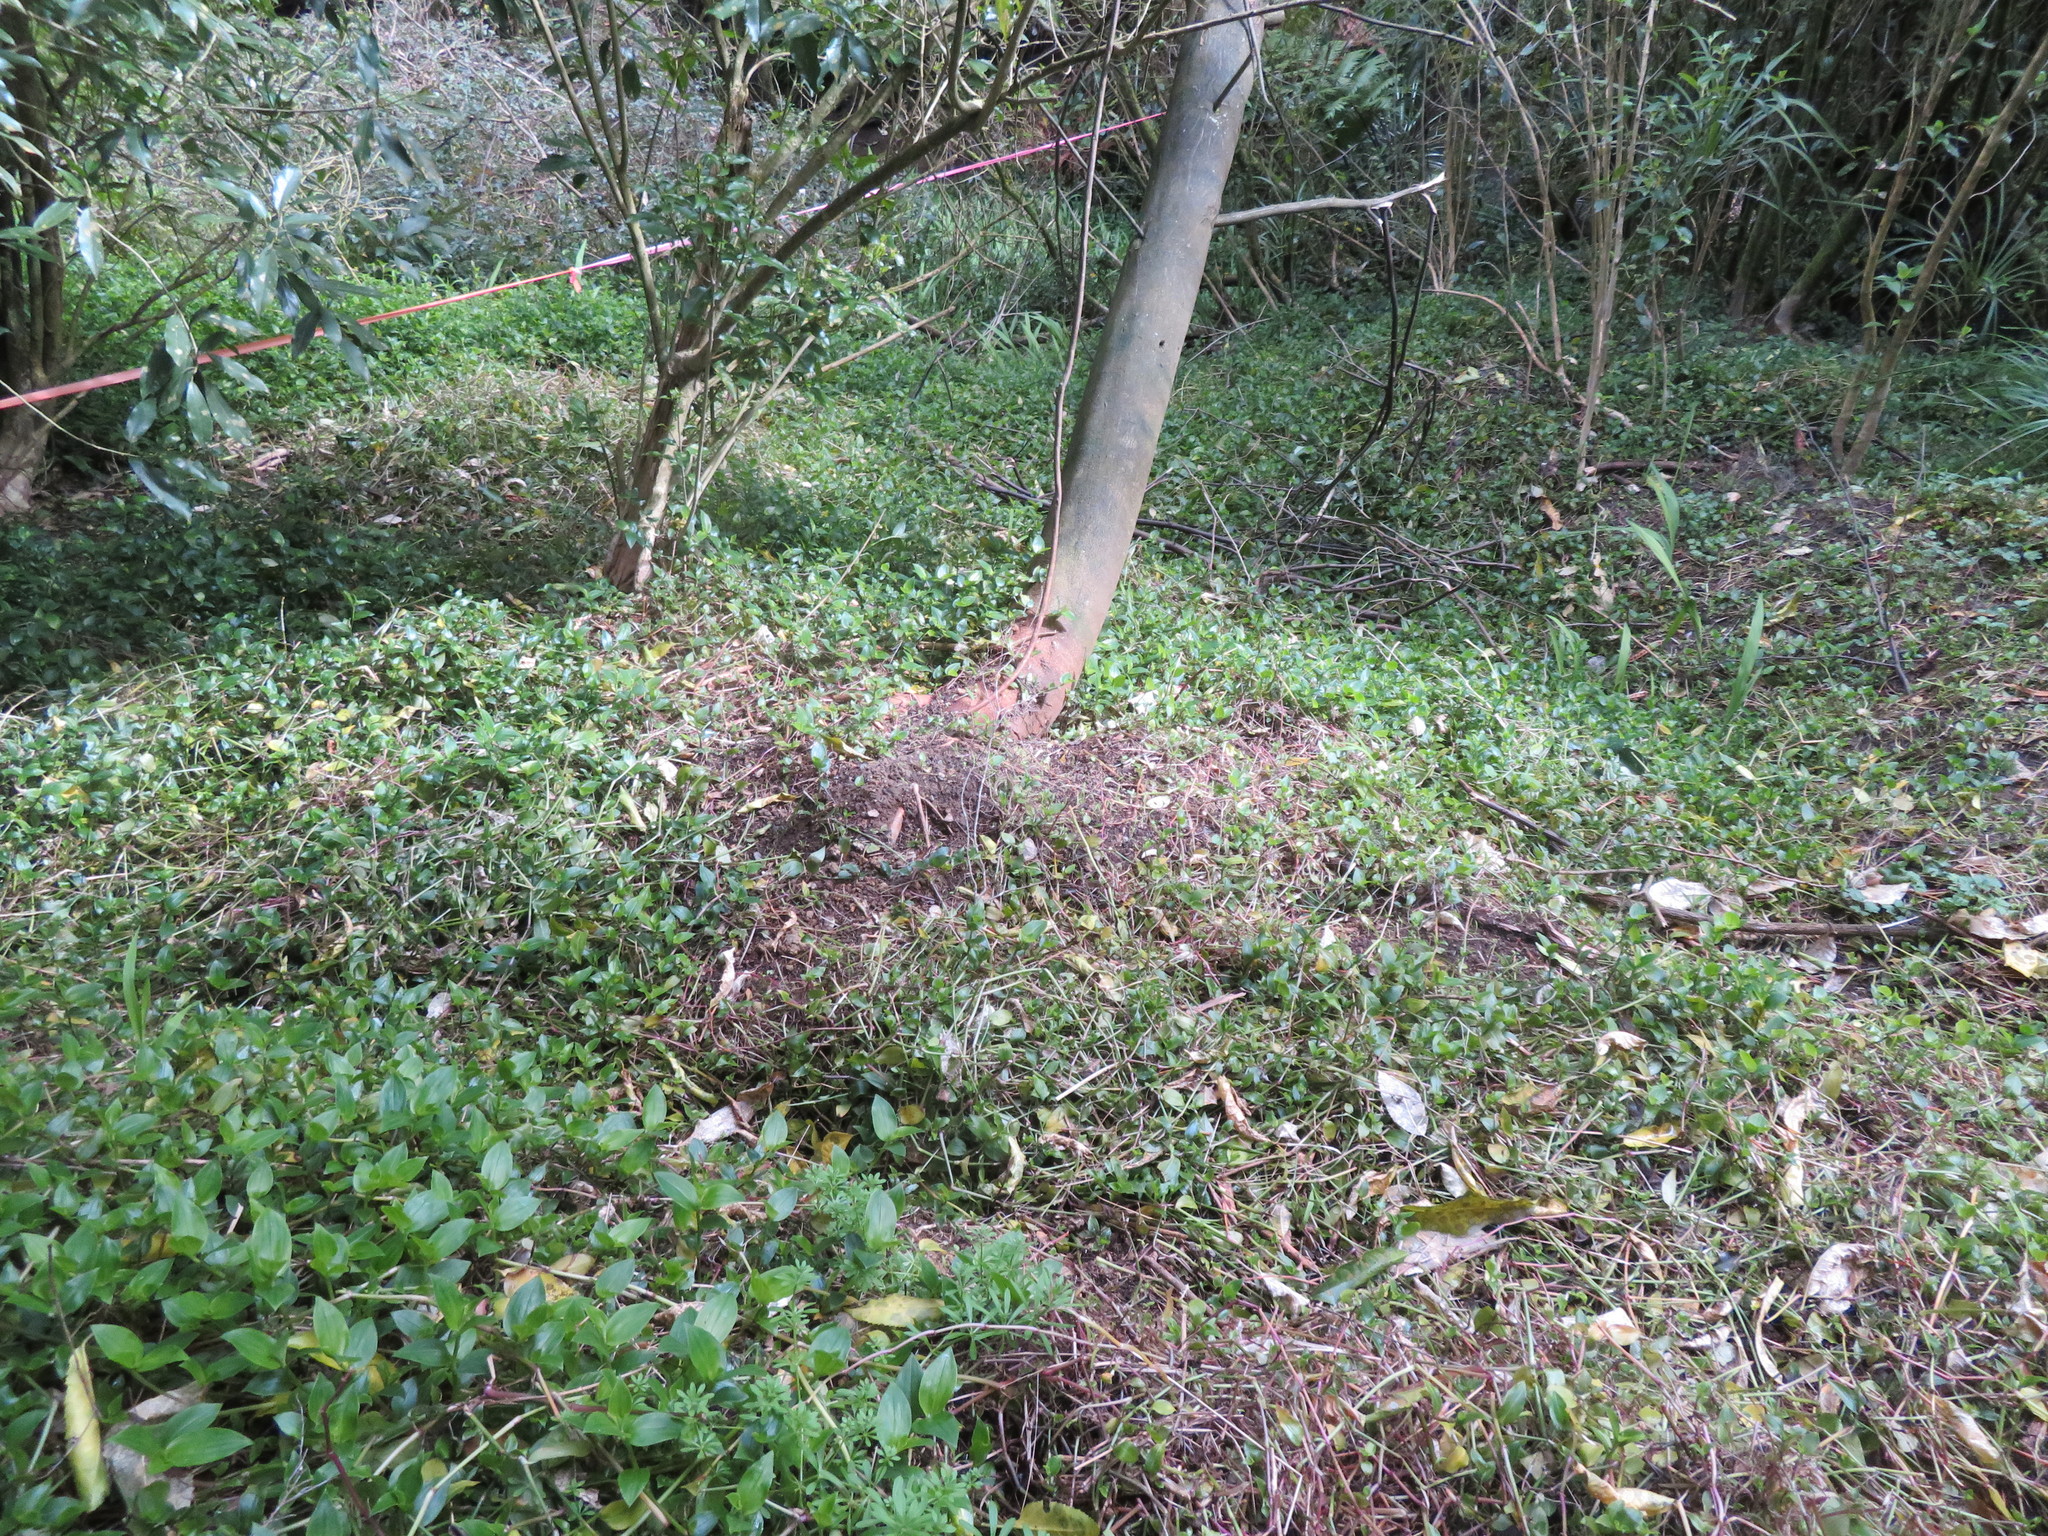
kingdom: Plantae
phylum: Tracheophyta
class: Liliopsida
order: Commelinales
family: Commelinaceae
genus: Tradescantia
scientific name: Tradescantia fluminensis
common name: Wandering-jew
